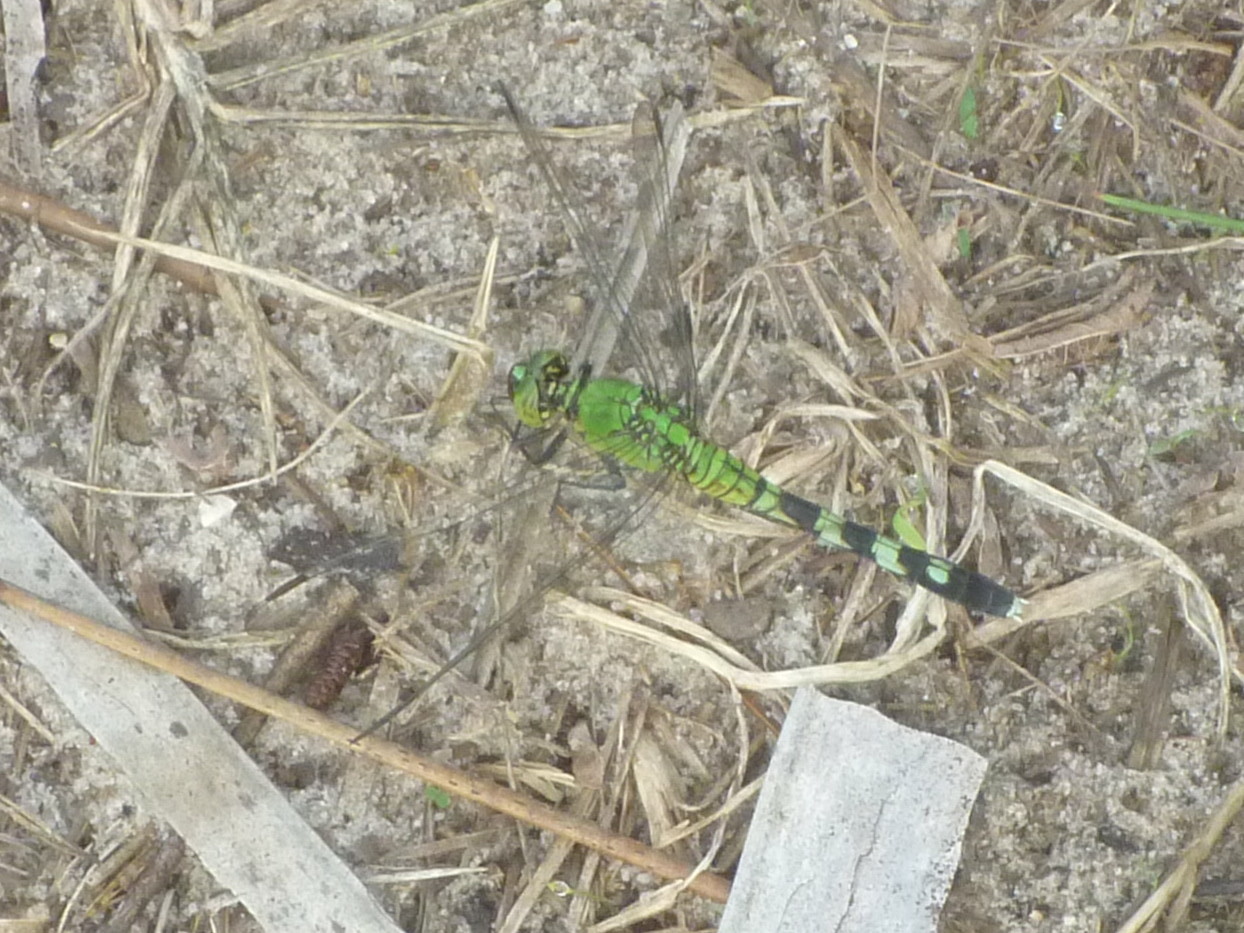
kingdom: Animalia
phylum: Arthropoda
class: Insecta
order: Odonata
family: Libellulidae
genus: Erythemis
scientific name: Erythemis simplicicollis
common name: Eastern pondhawk
